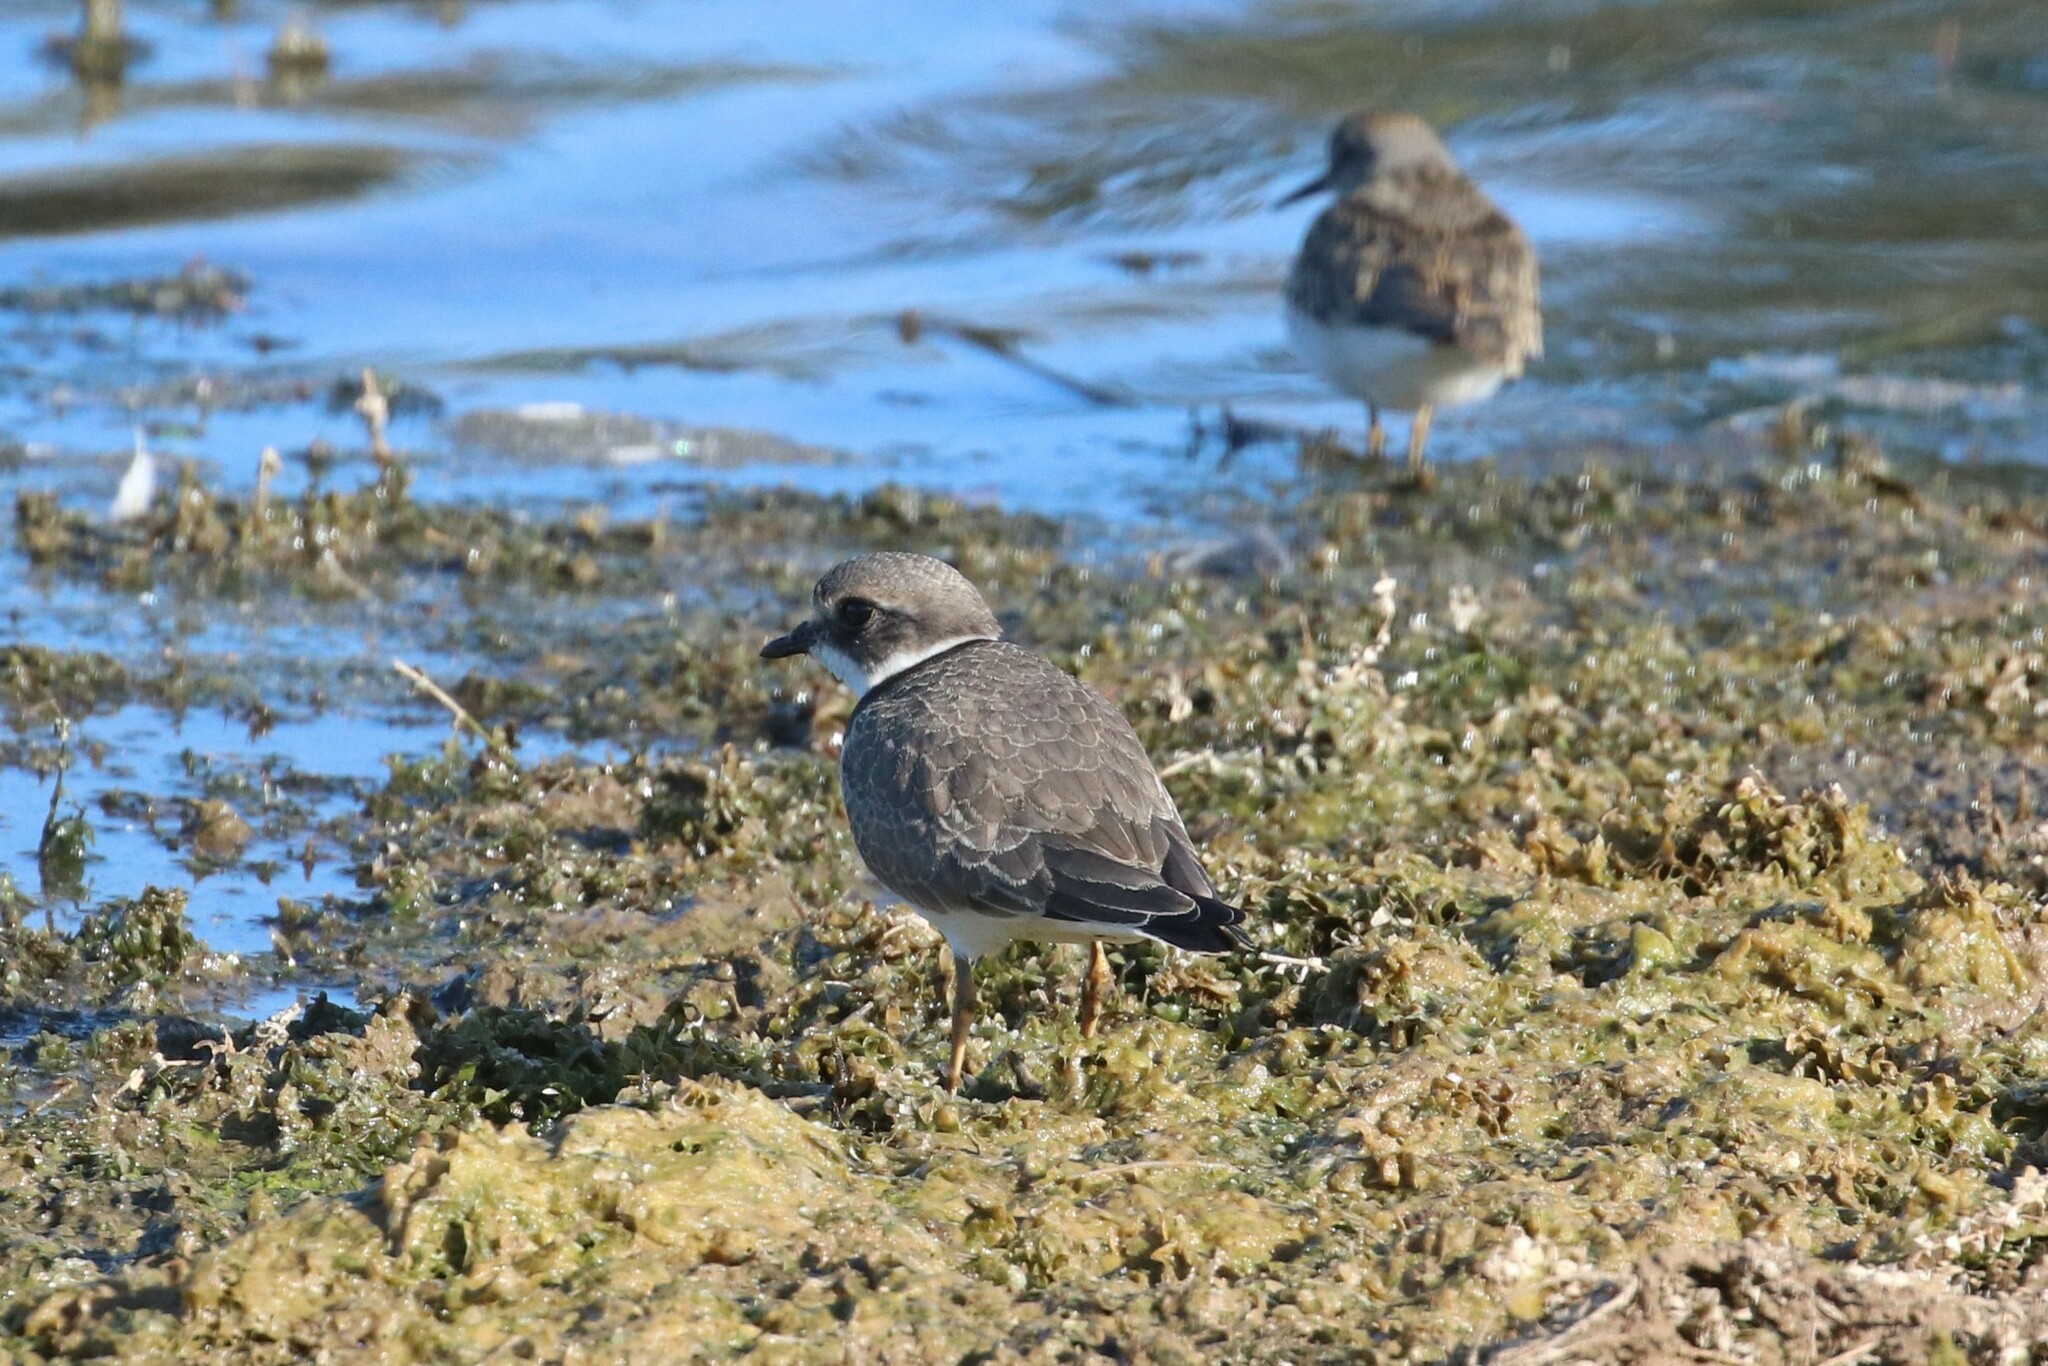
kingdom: Animalia
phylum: Chordata
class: Aves
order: Charadriiformes
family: Charadriidae
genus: Charadrius
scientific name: Charadrius hiaticula
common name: Common ringed plover
